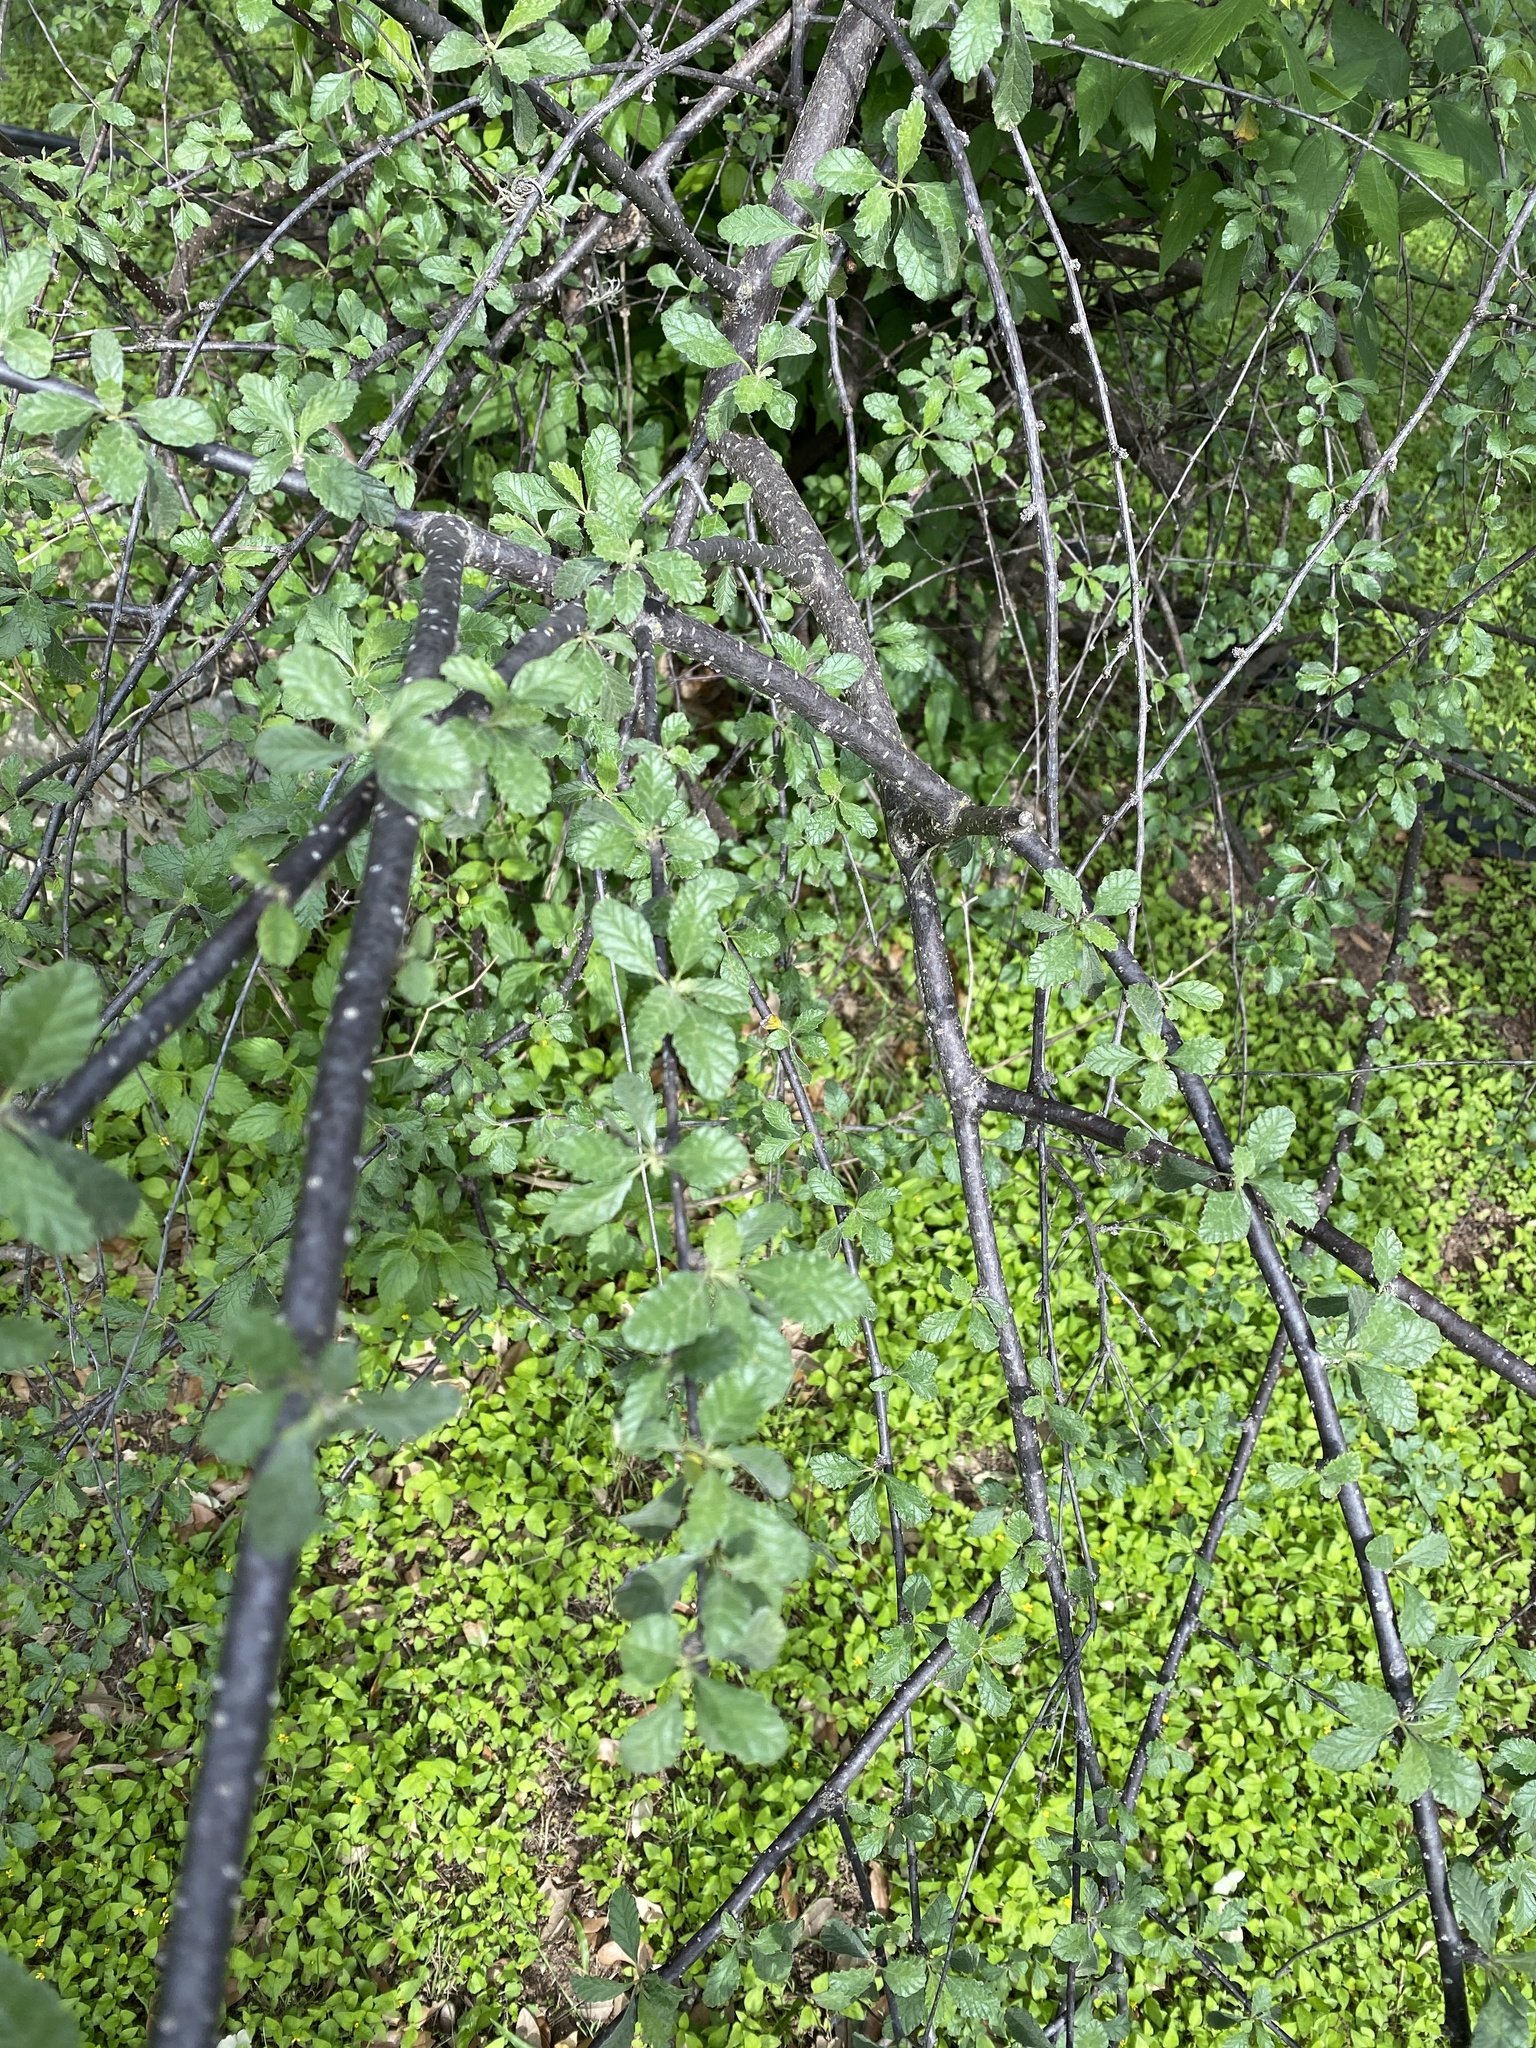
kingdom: Plantae
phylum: Tracheophyta
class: Magnoliopsida
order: Boraginales
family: Cordiaceae
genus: Cordia
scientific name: Cordia parvifolia
